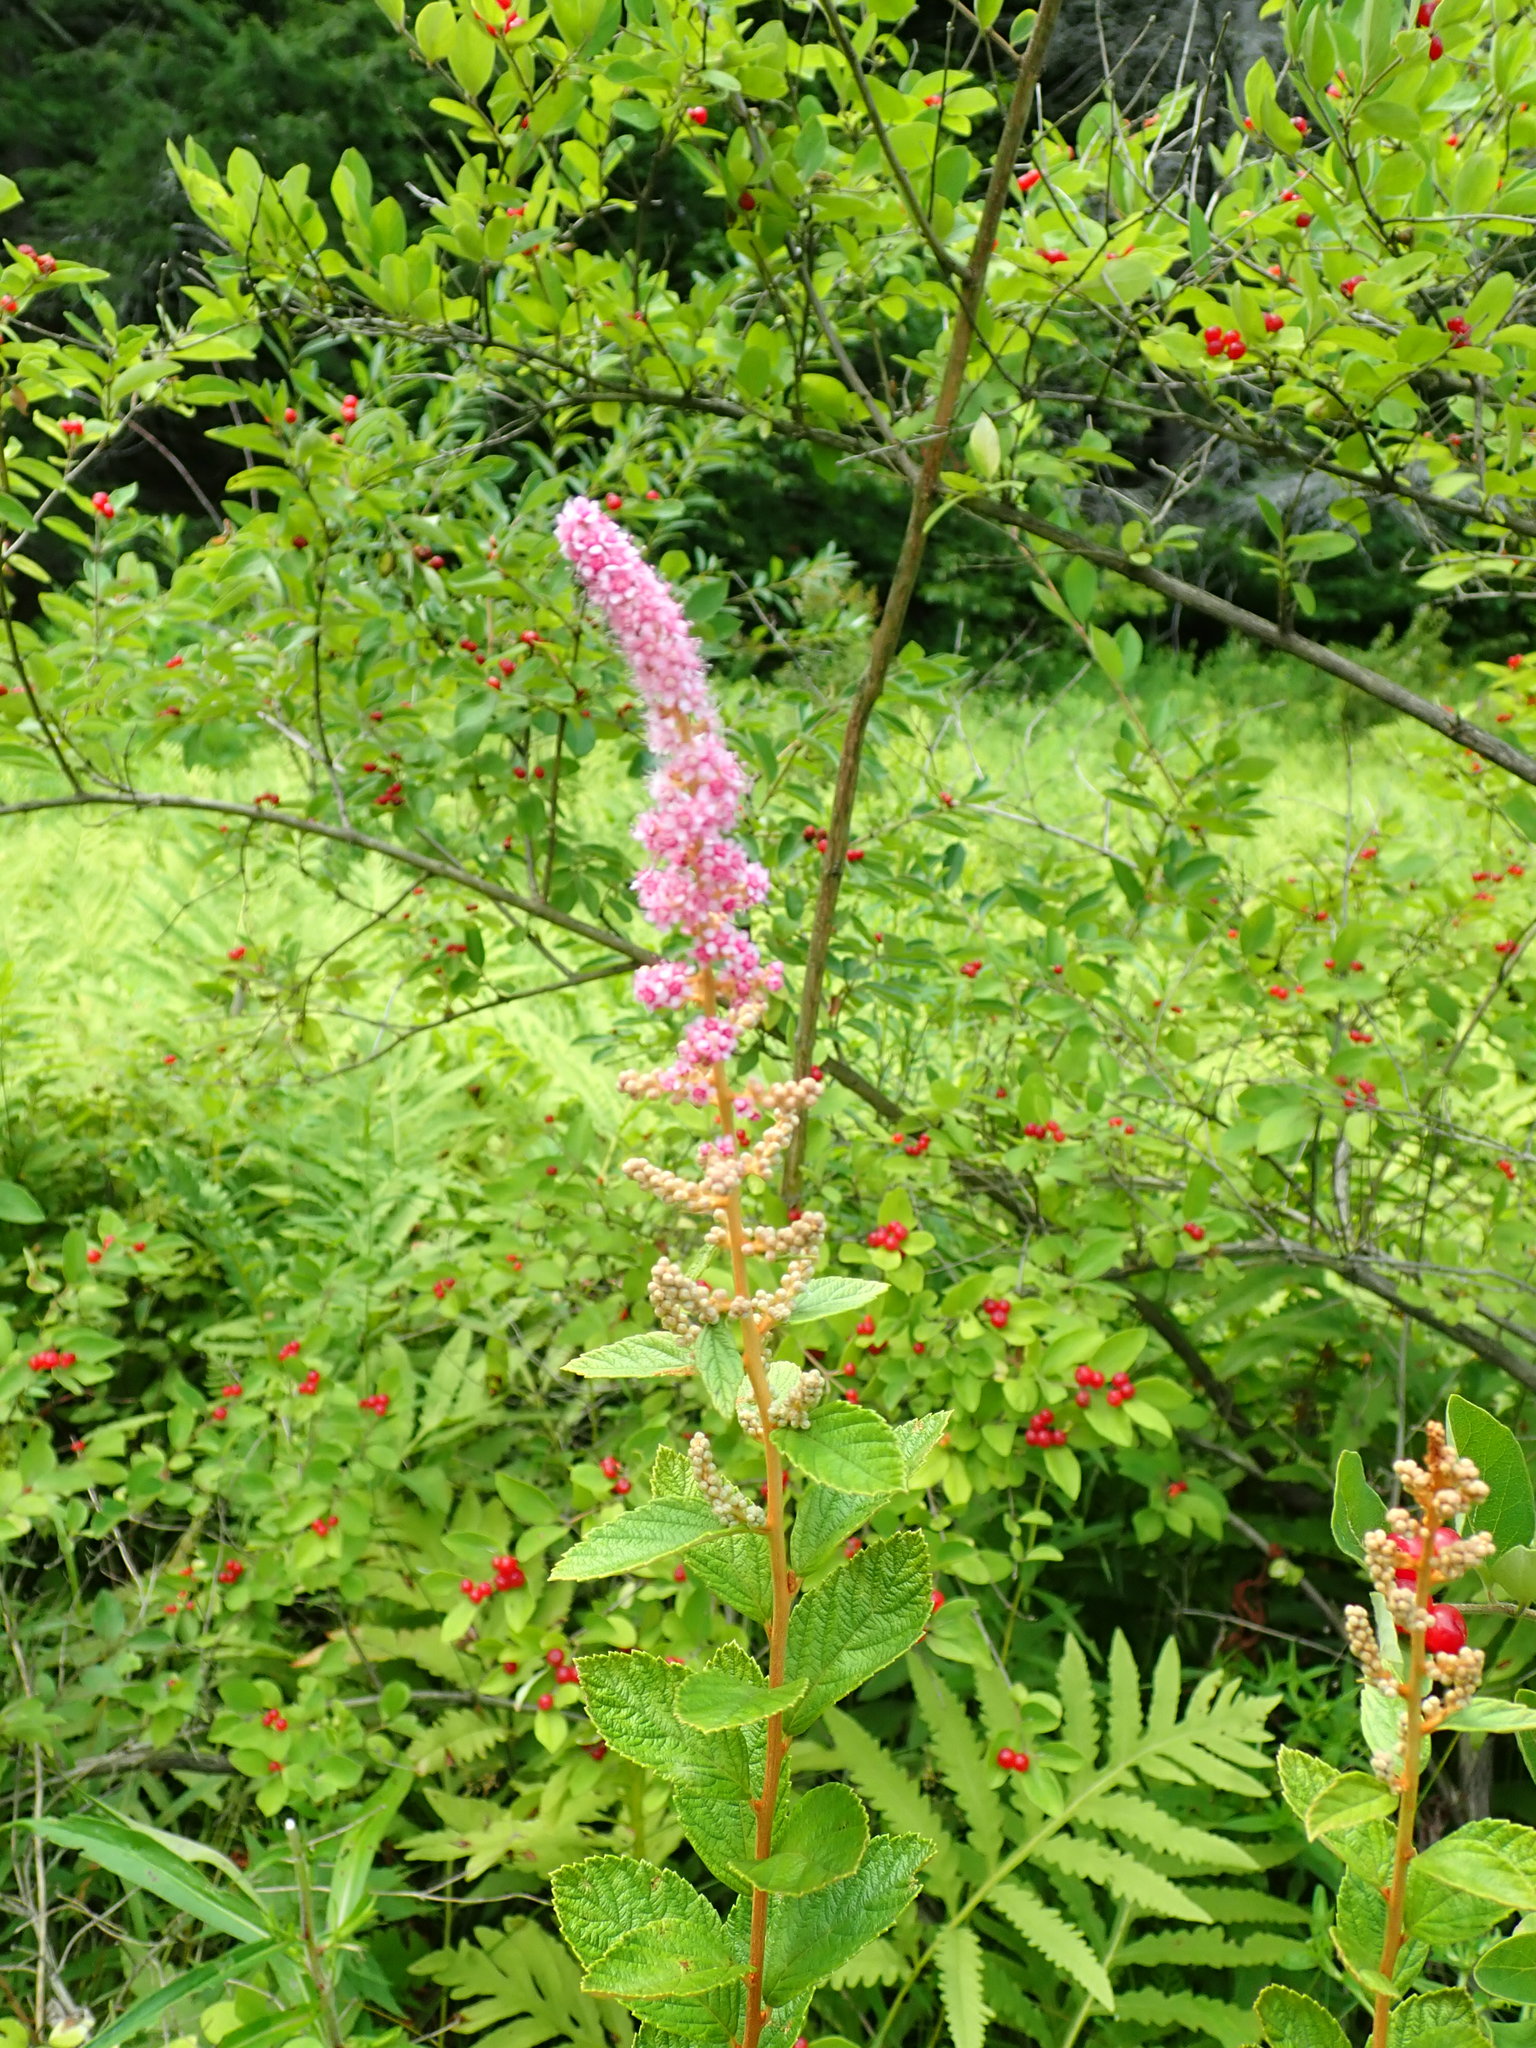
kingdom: Plantae
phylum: Tracheophyta
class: Magnoliopsida
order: Rosales
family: Rosaceae
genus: Spiraea
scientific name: Spiraea tomentosa
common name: Hardhack
